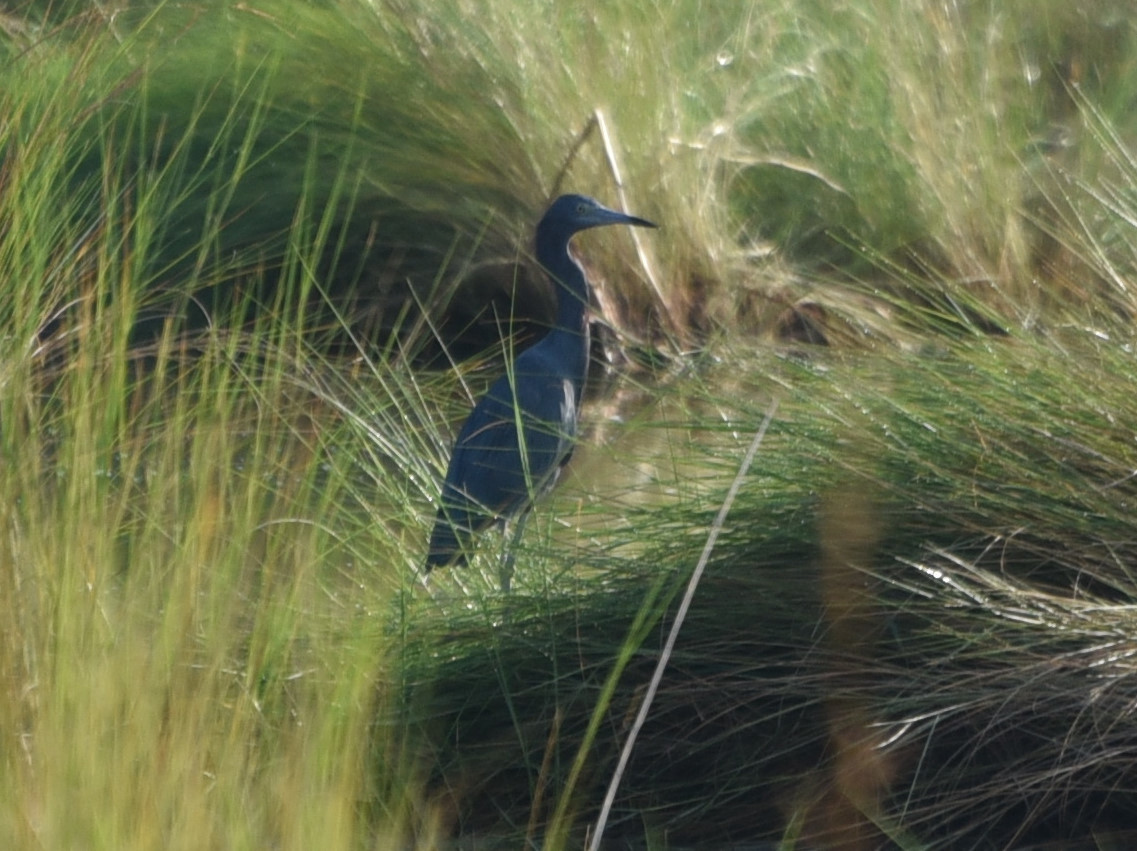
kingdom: Animalia
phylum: Chordata
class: Aves
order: Pelecaniformes
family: Ardeidae
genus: Egretta
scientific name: Egretta caerulea
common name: Little blue heron
